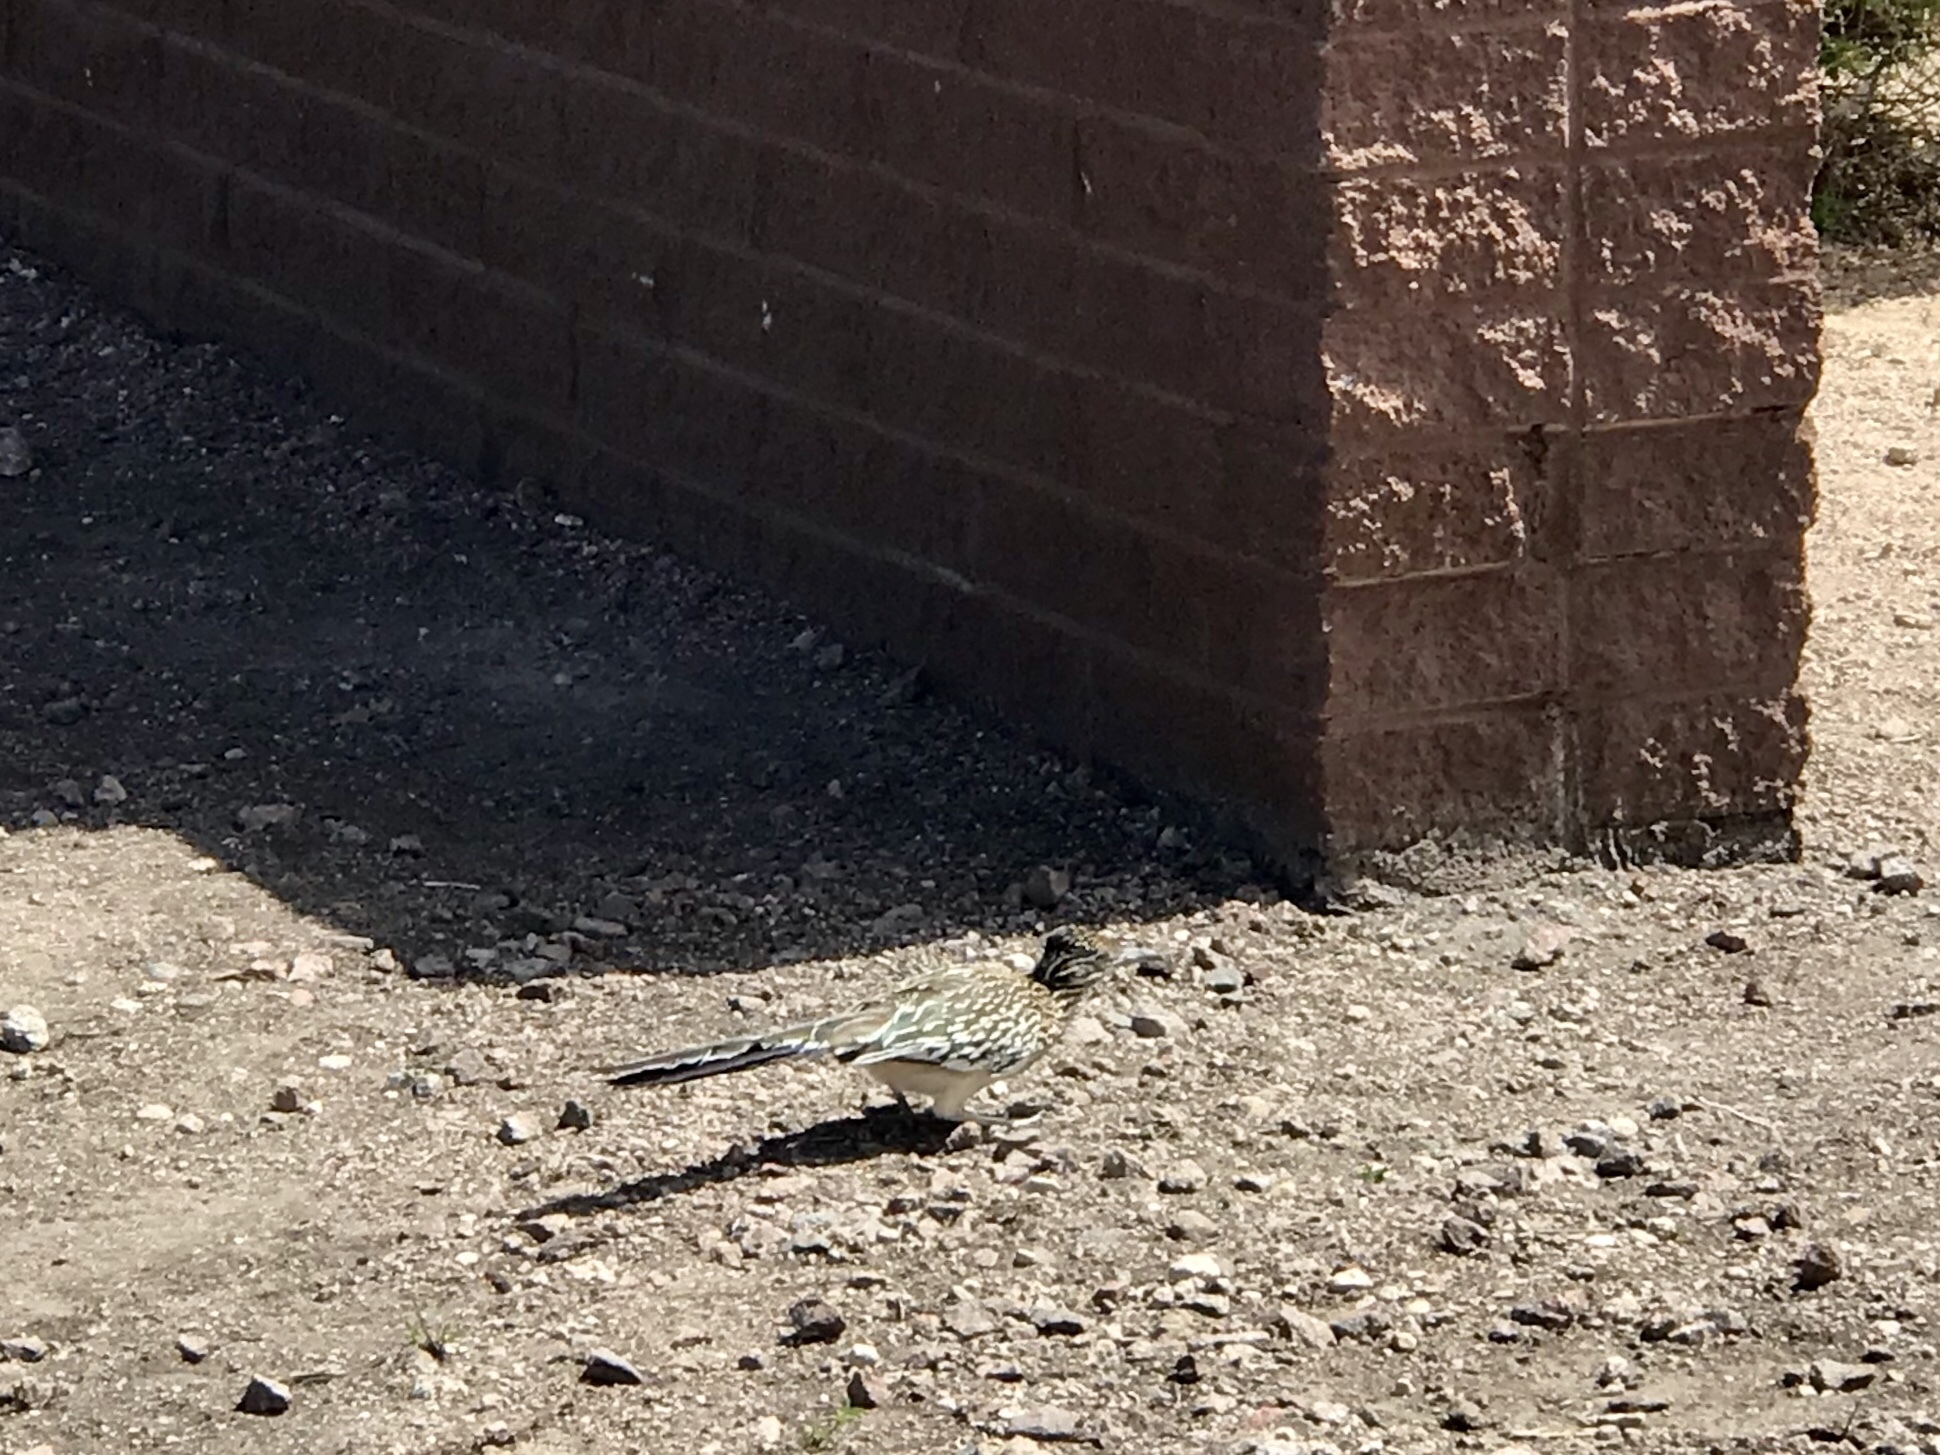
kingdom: Animalia
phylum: Chordata
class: Aves
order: Cuculiformes
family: Cuculidae
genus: Geococcyx
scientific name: Geococcyx californianus
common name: Greater roadrunner
